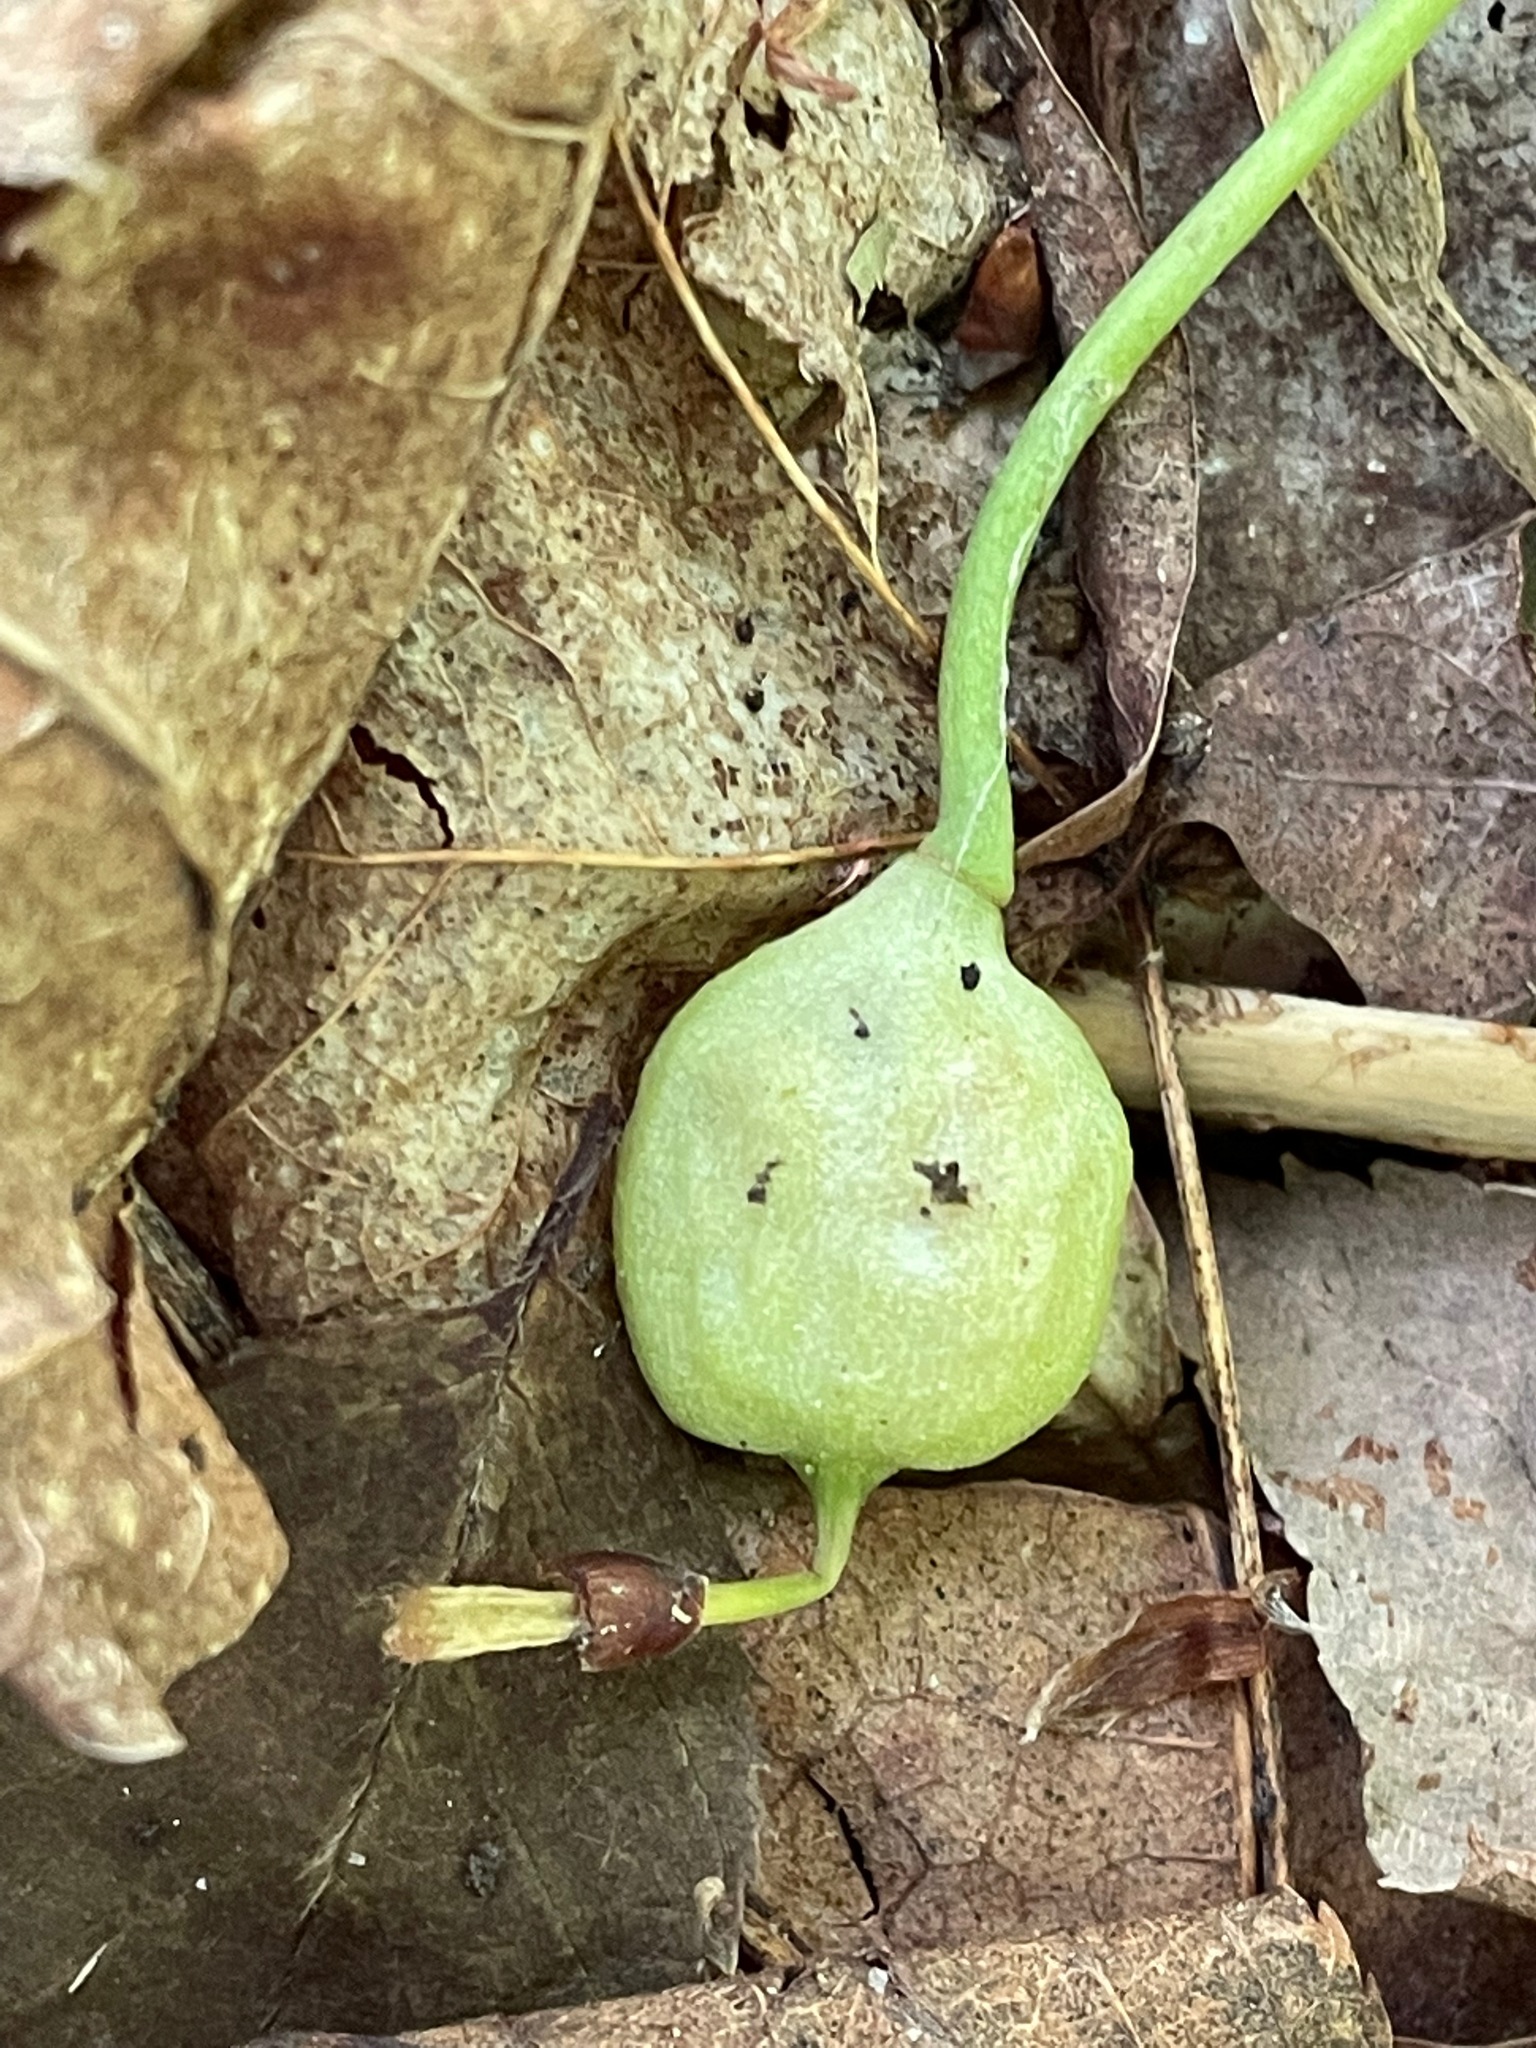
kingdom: Plantae
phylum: Tracheophyta
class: Liliopsida
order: Liliales
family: Liliaceae
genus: Erythronium
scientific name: Erythronium americanum
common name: Yellow adder's-tongue
